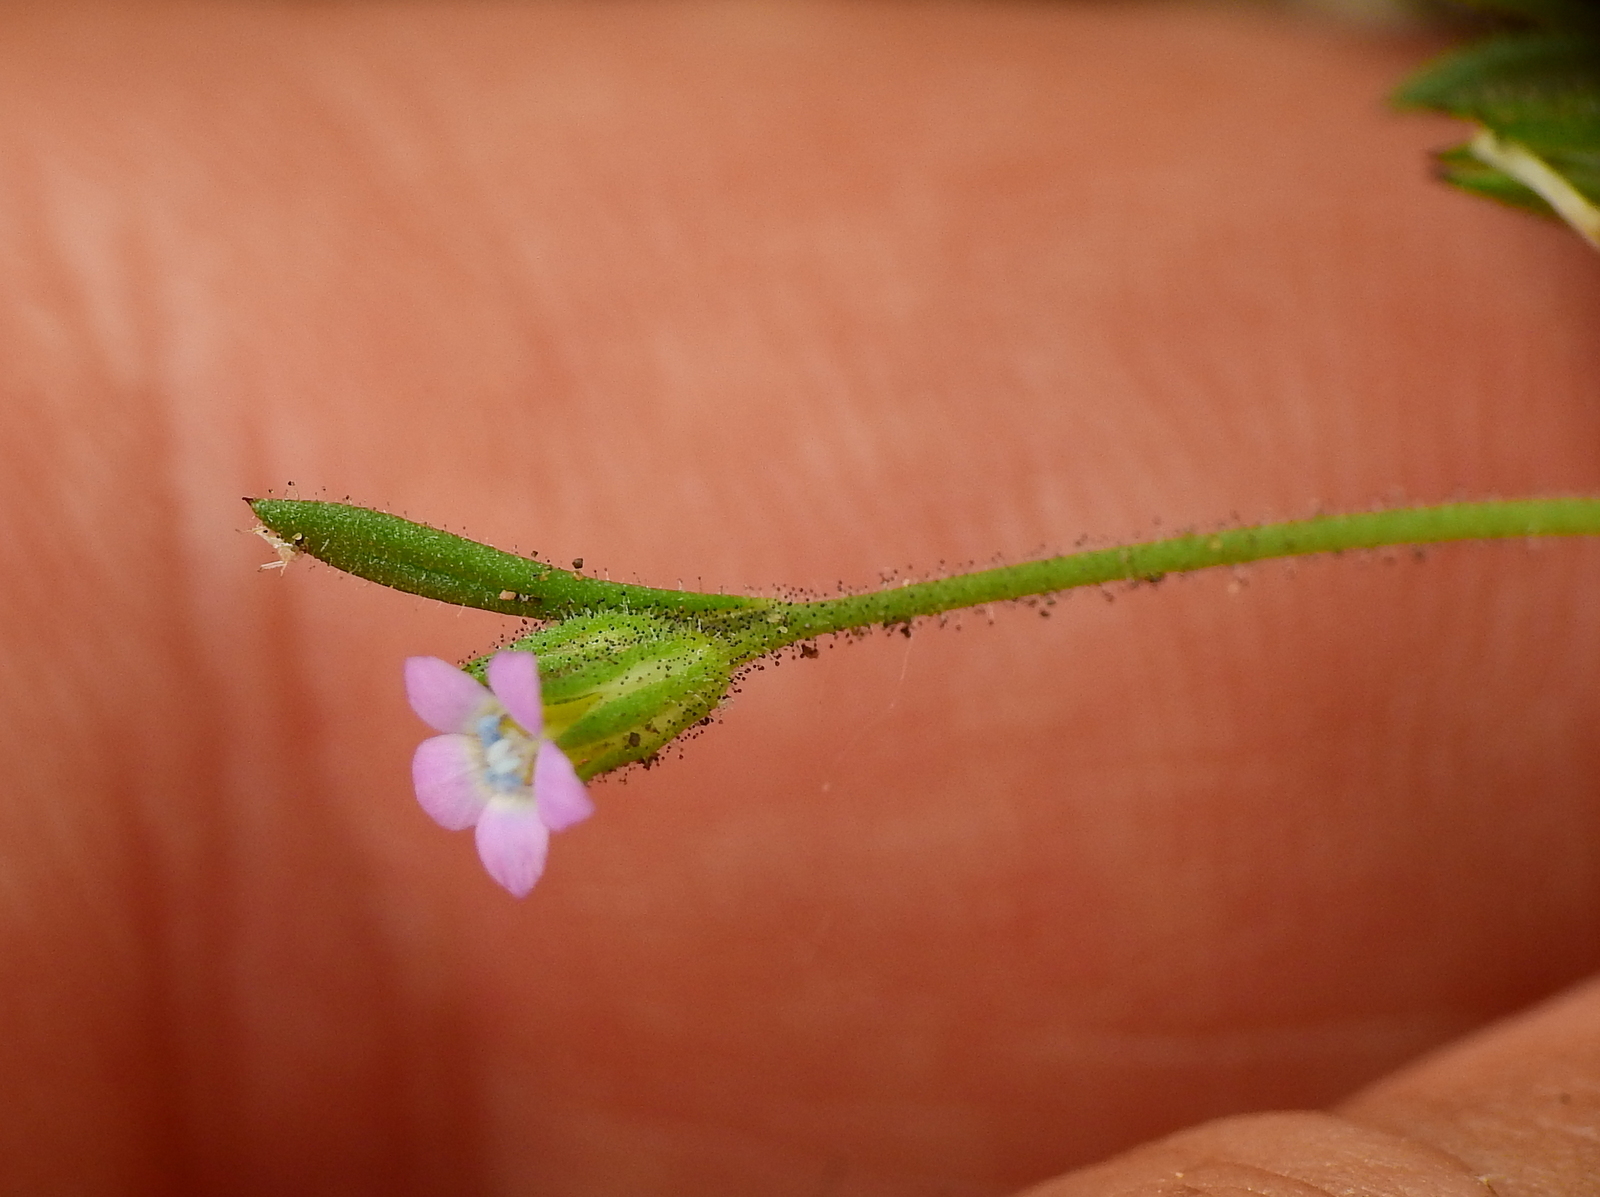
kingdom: Plantae
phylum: Tracheophyta
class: Magnoliopsida
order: Ericales
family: Polemoniaceae
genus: Gilia
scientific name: Gilia crassifolia
